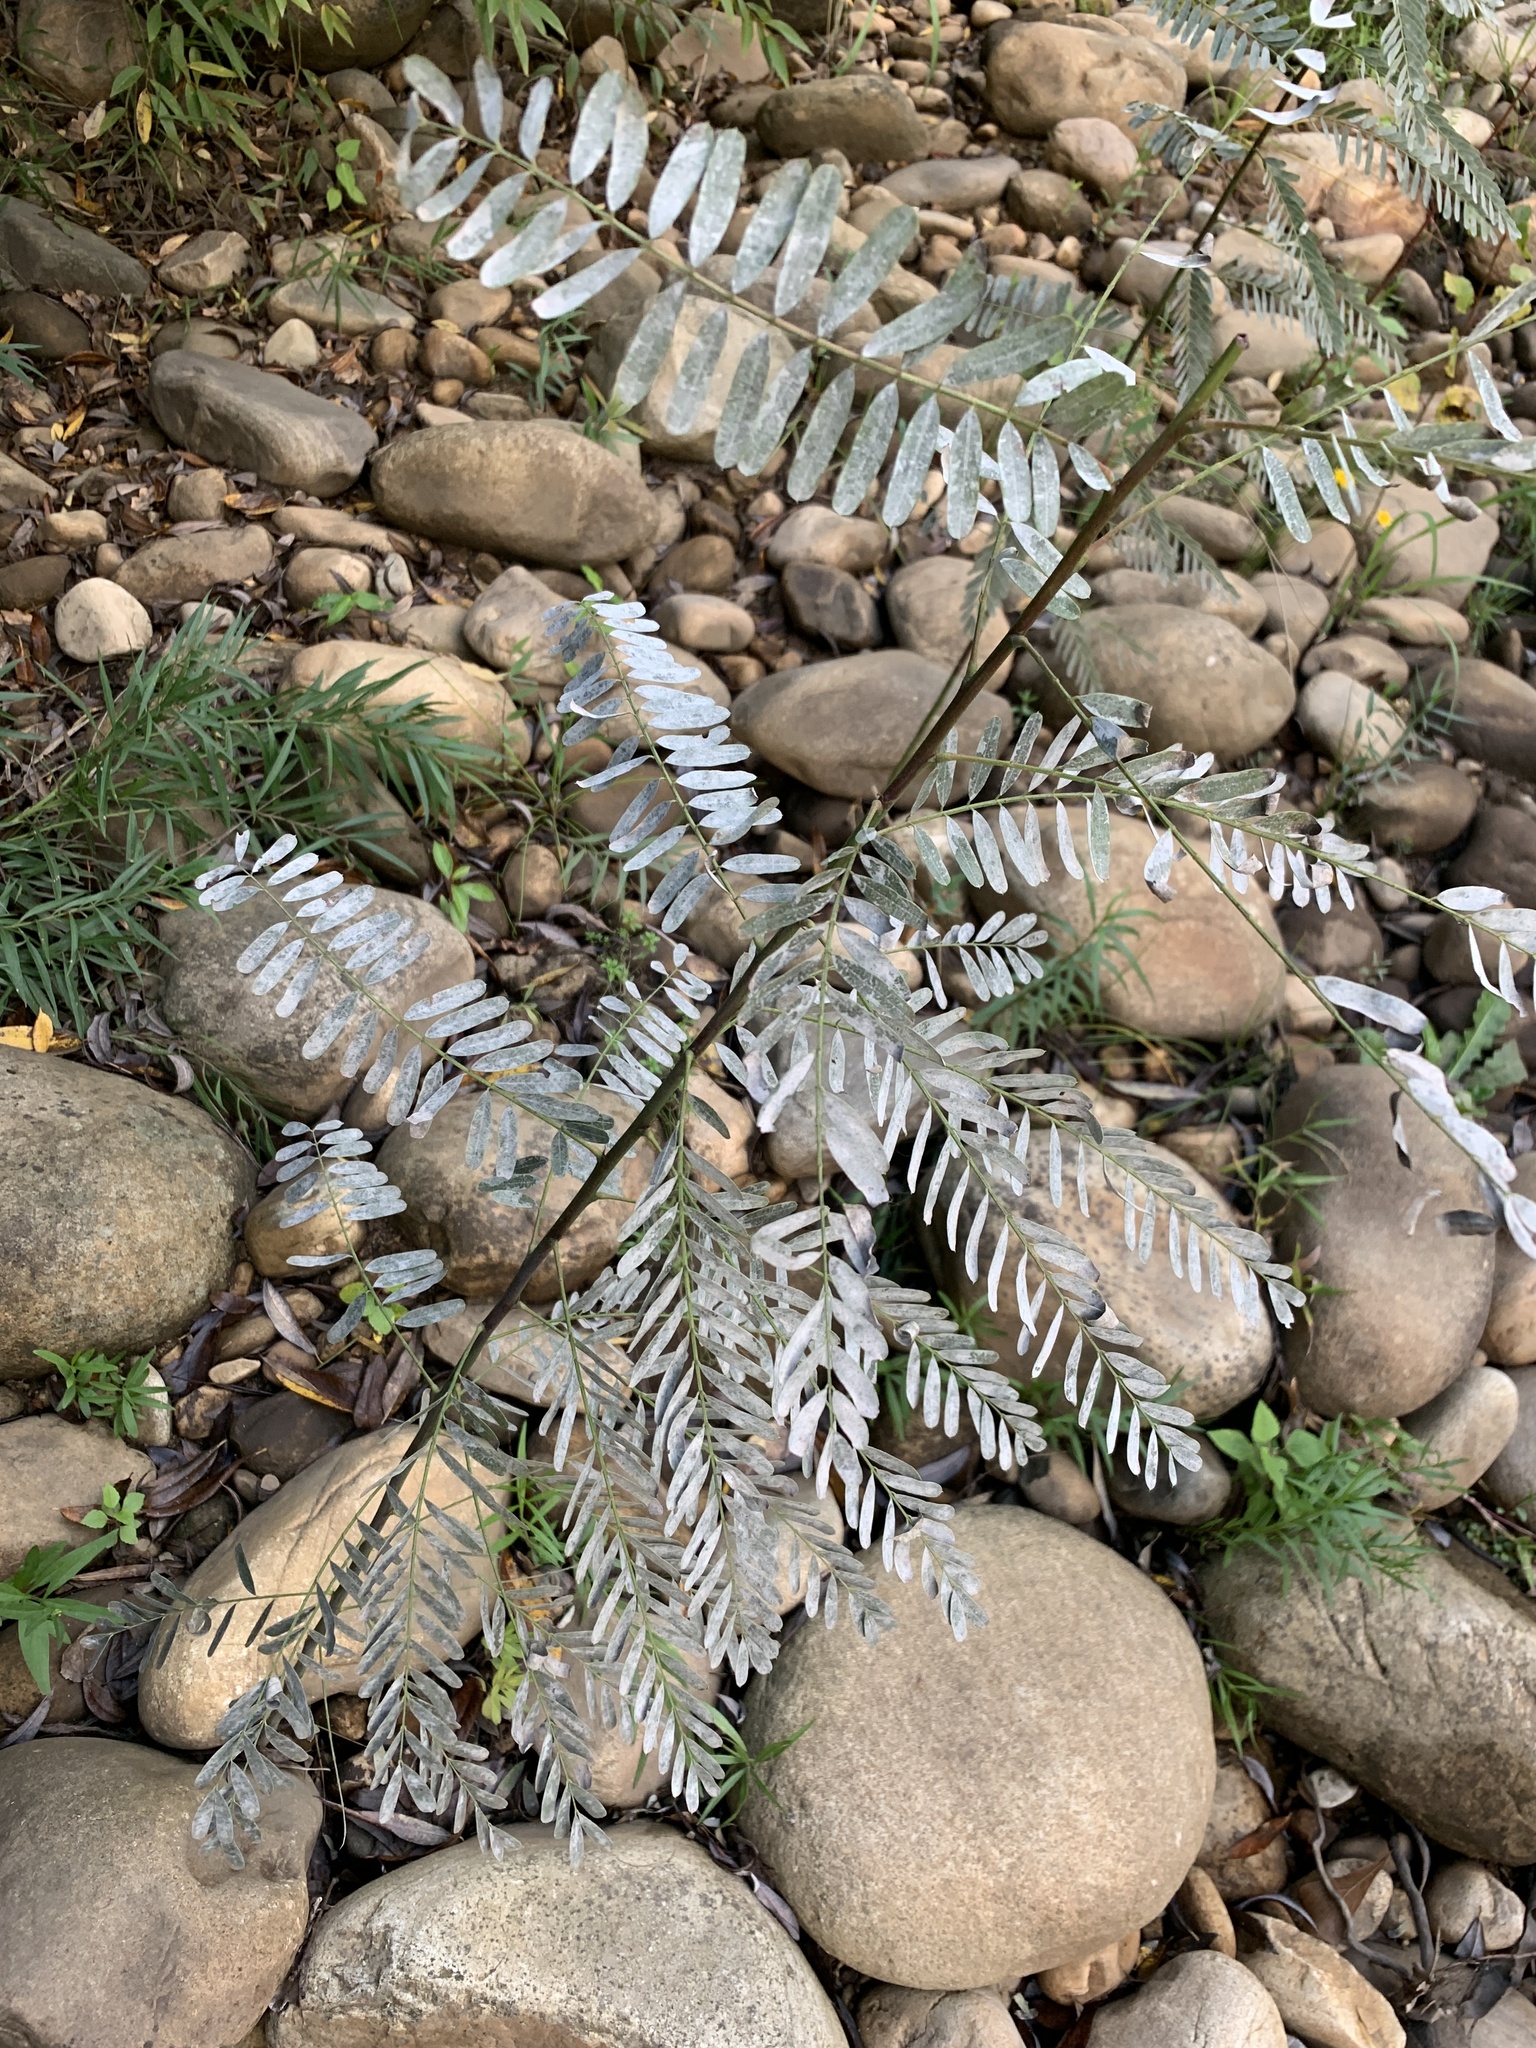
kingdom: Plantae
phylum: Tracheophyta
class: Magnoliopsida
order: Fabales
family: Fabaceae
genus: Sesbania
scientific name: Sesbania punicea
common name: Rattlebox
